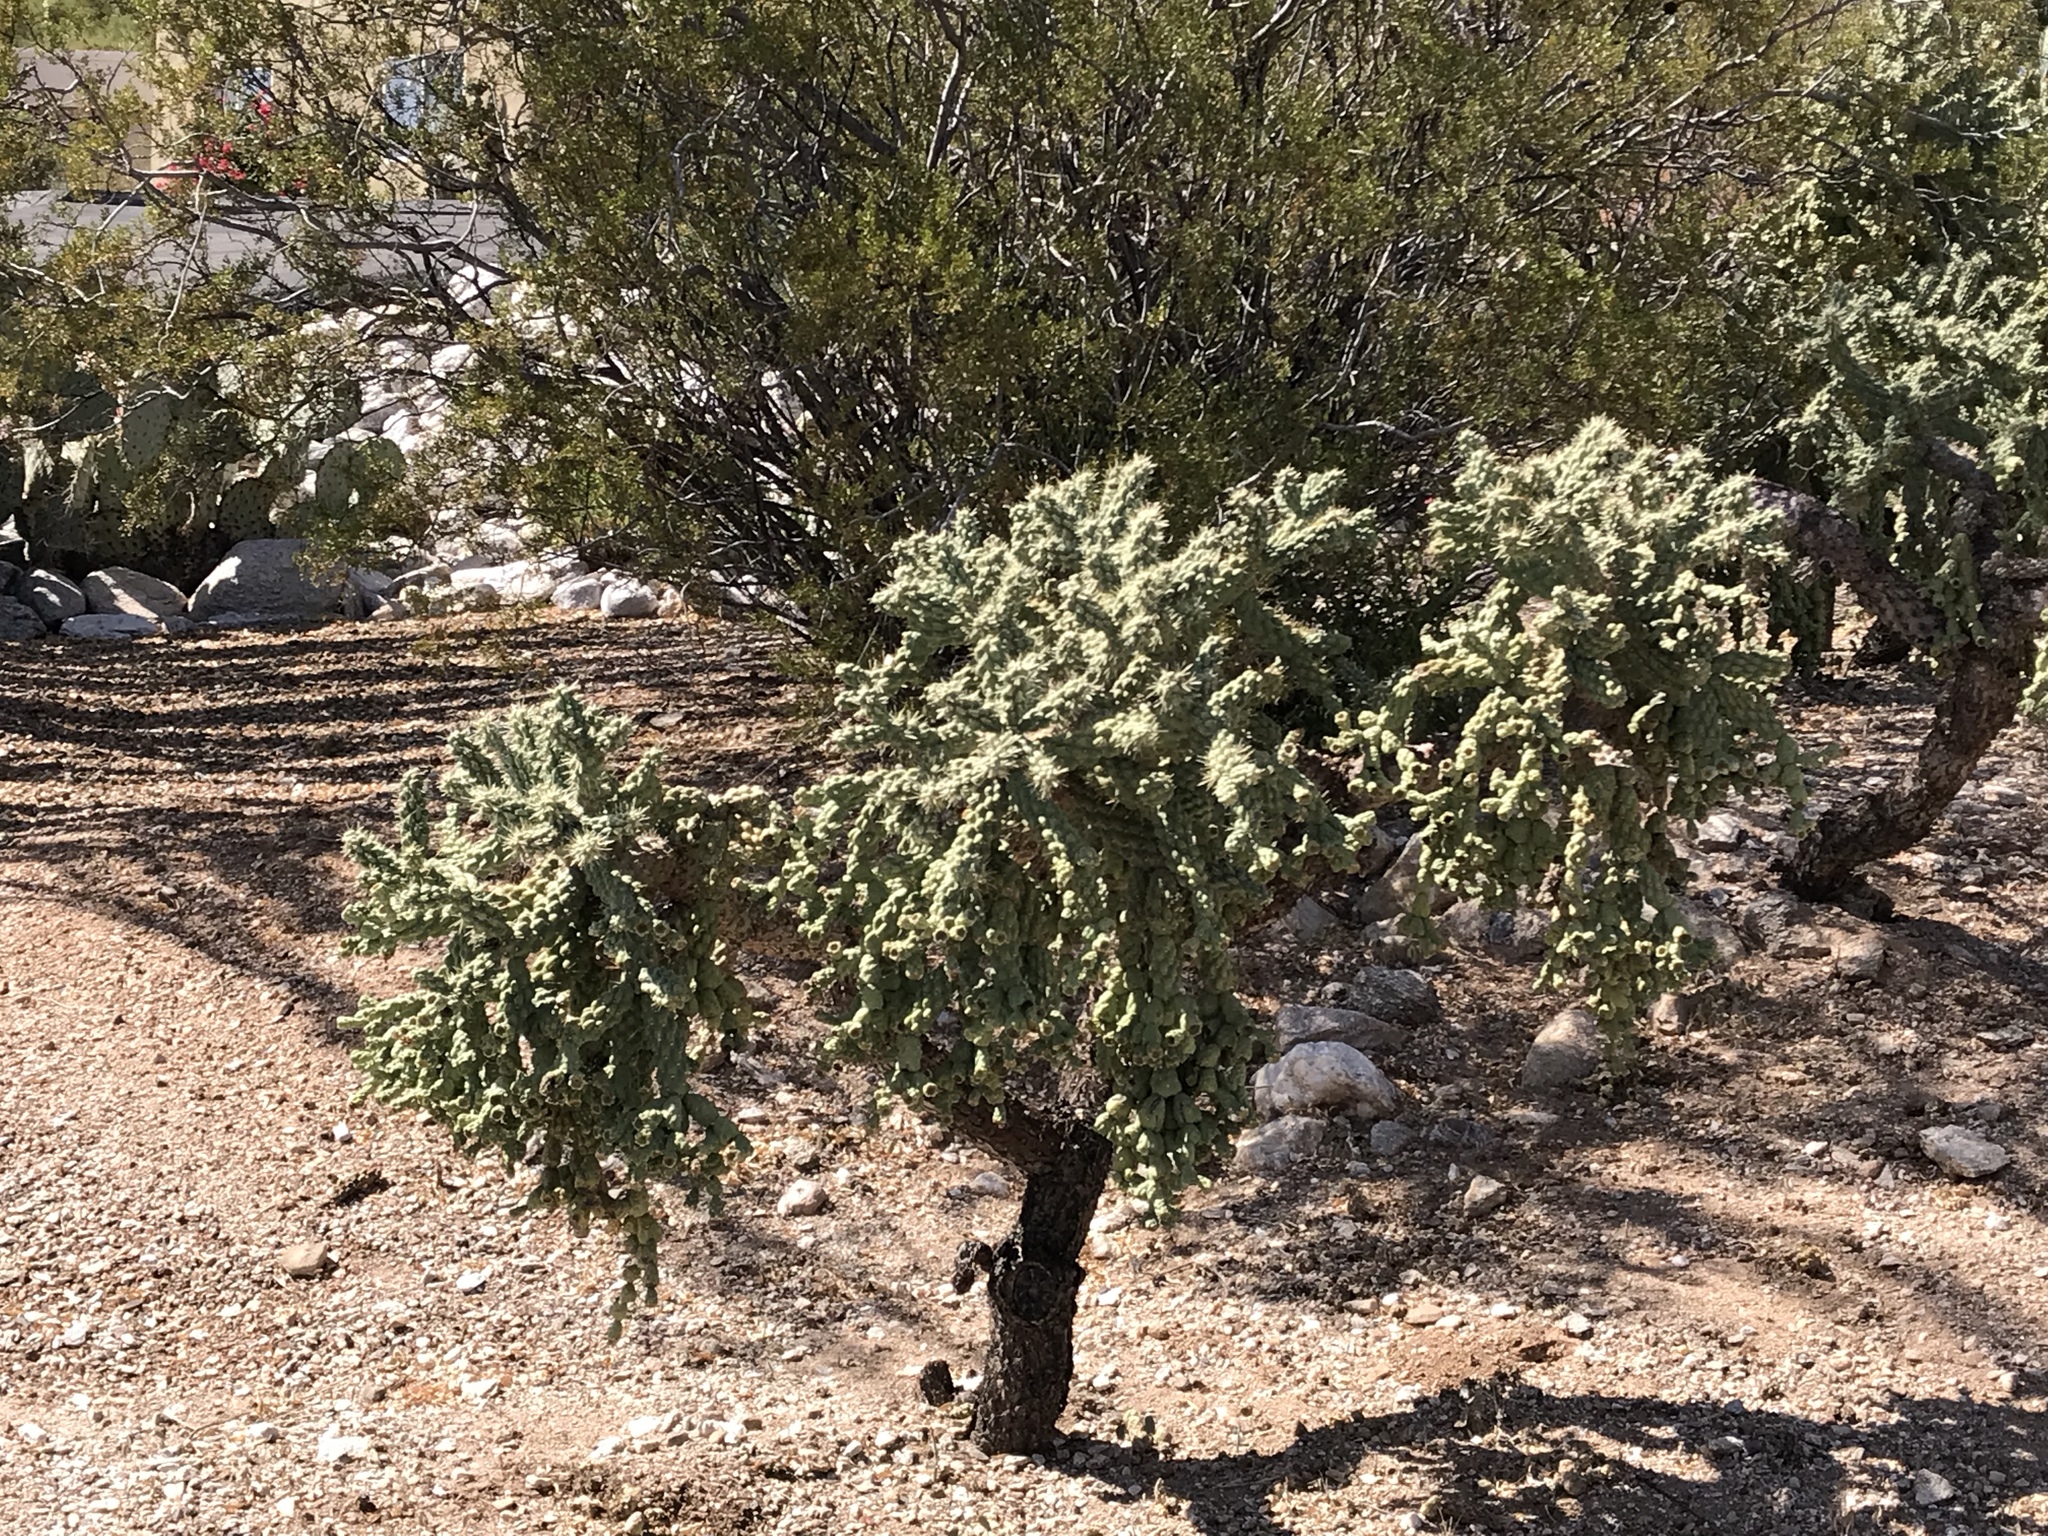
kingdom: Plantae
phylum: Tracheophyta
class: Magnoliopsida
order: Caryophyllales
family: Cactaceae
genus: Cylindropuntia
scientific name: Cylindropuntia fulgida
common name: Jumping cholla
